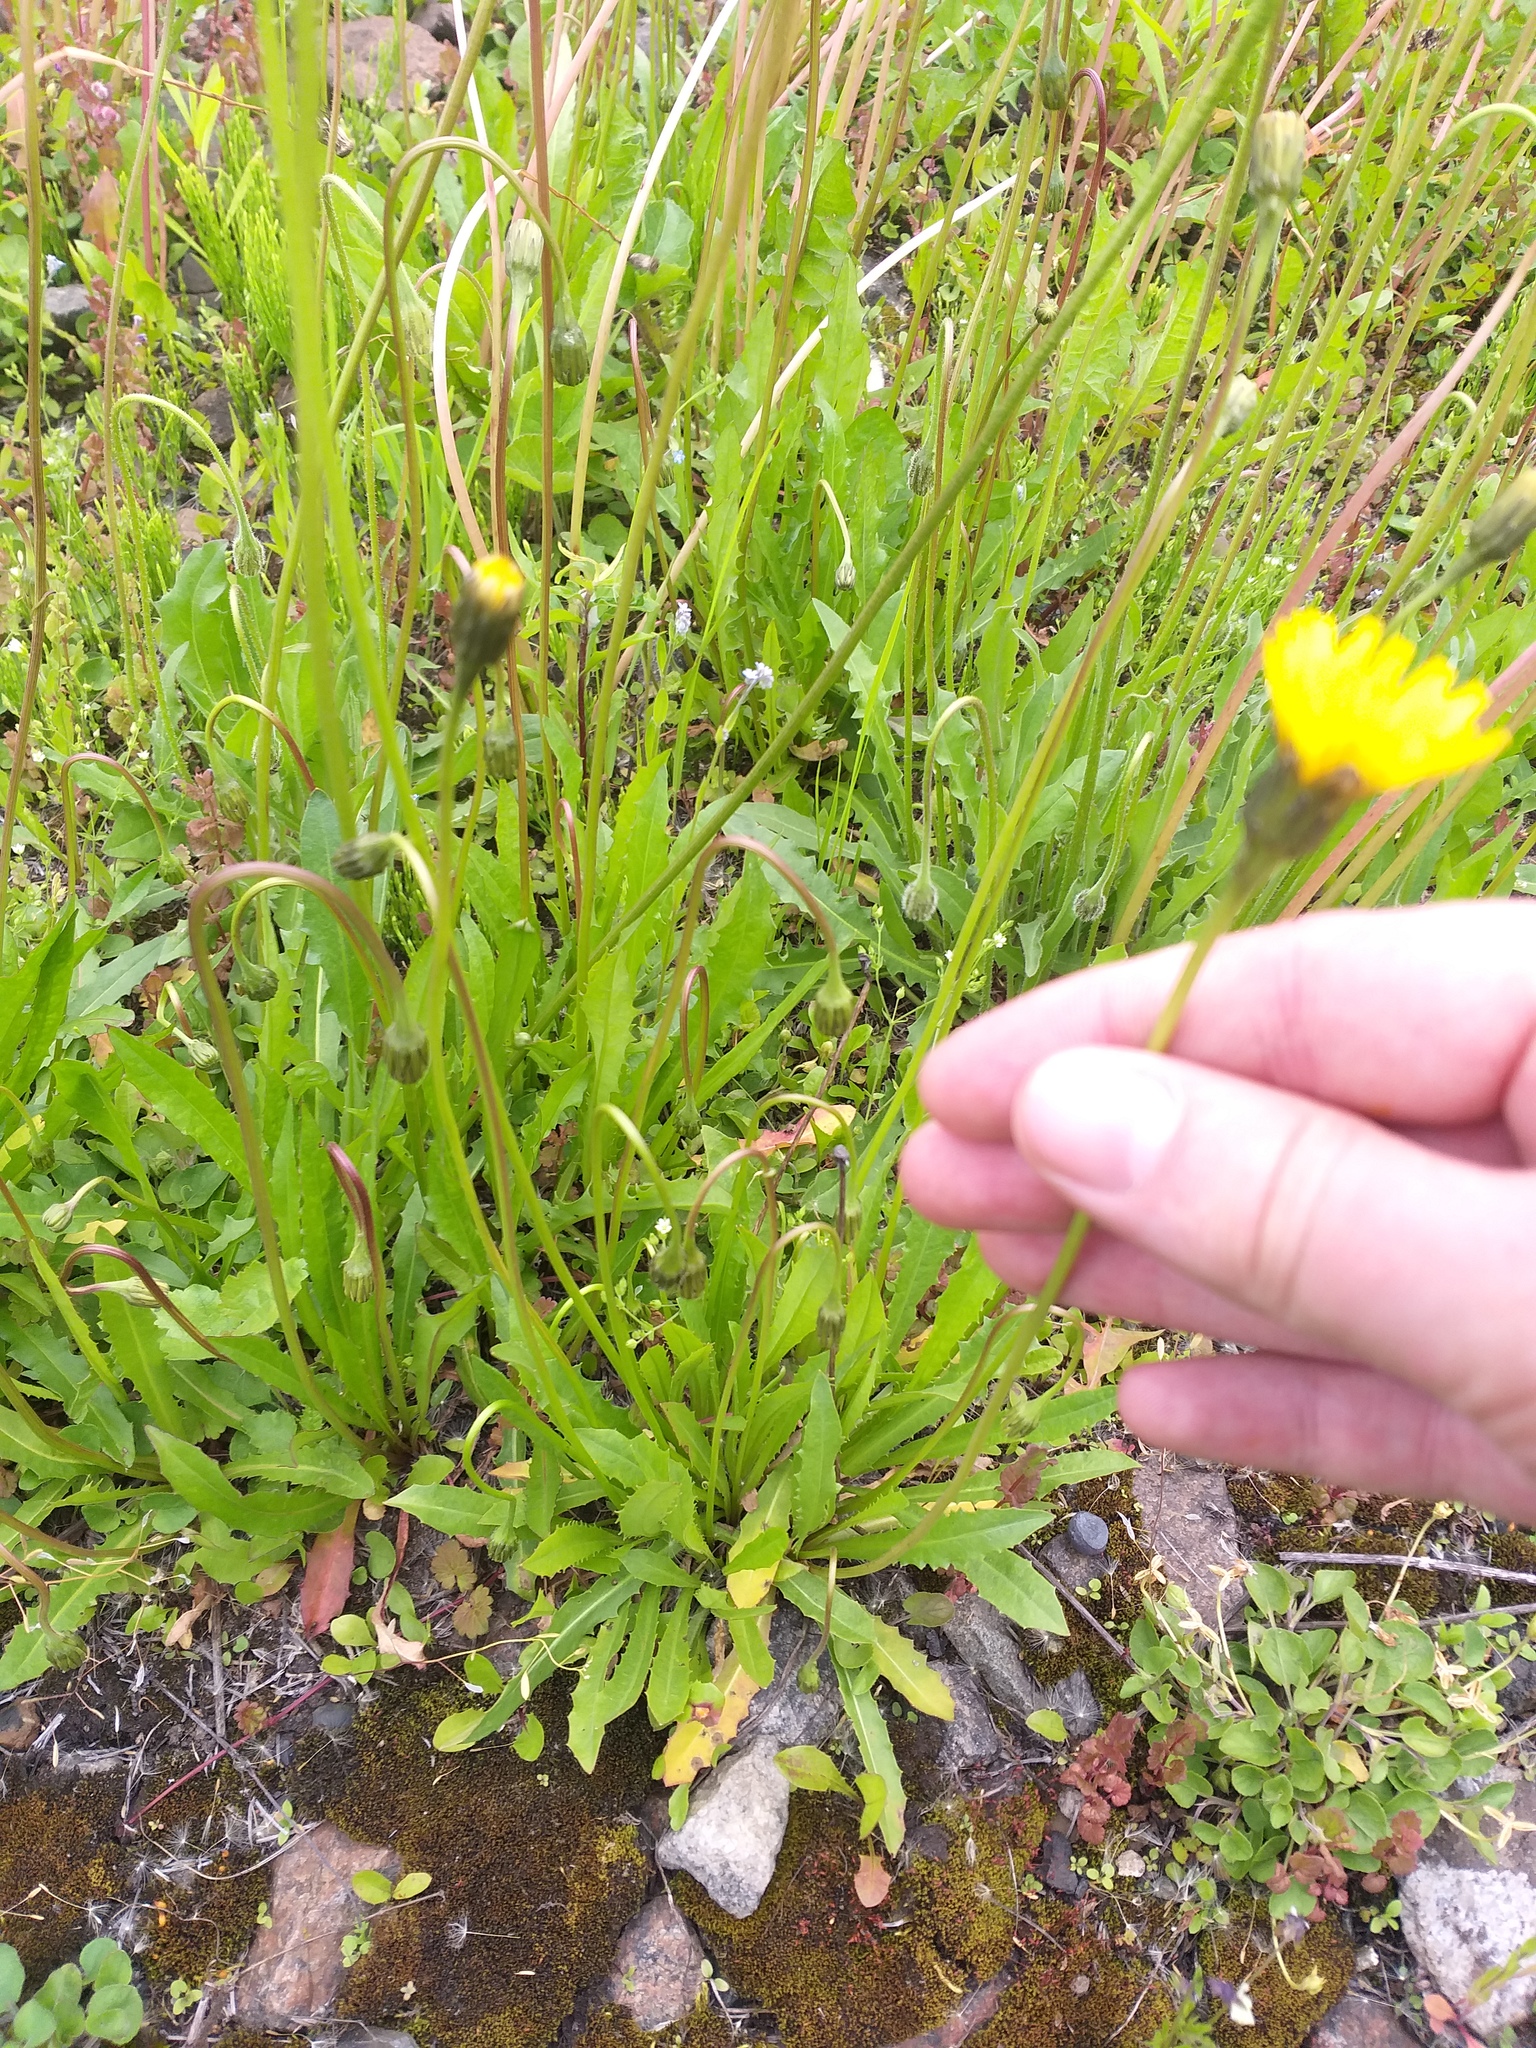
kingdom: Plantae
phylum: Tracheophyta
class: Magnoliopsida
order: Asterales
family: Asteraceae
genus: Leontodon
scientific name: Leontodon hispidus
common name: Rough hawkbit
